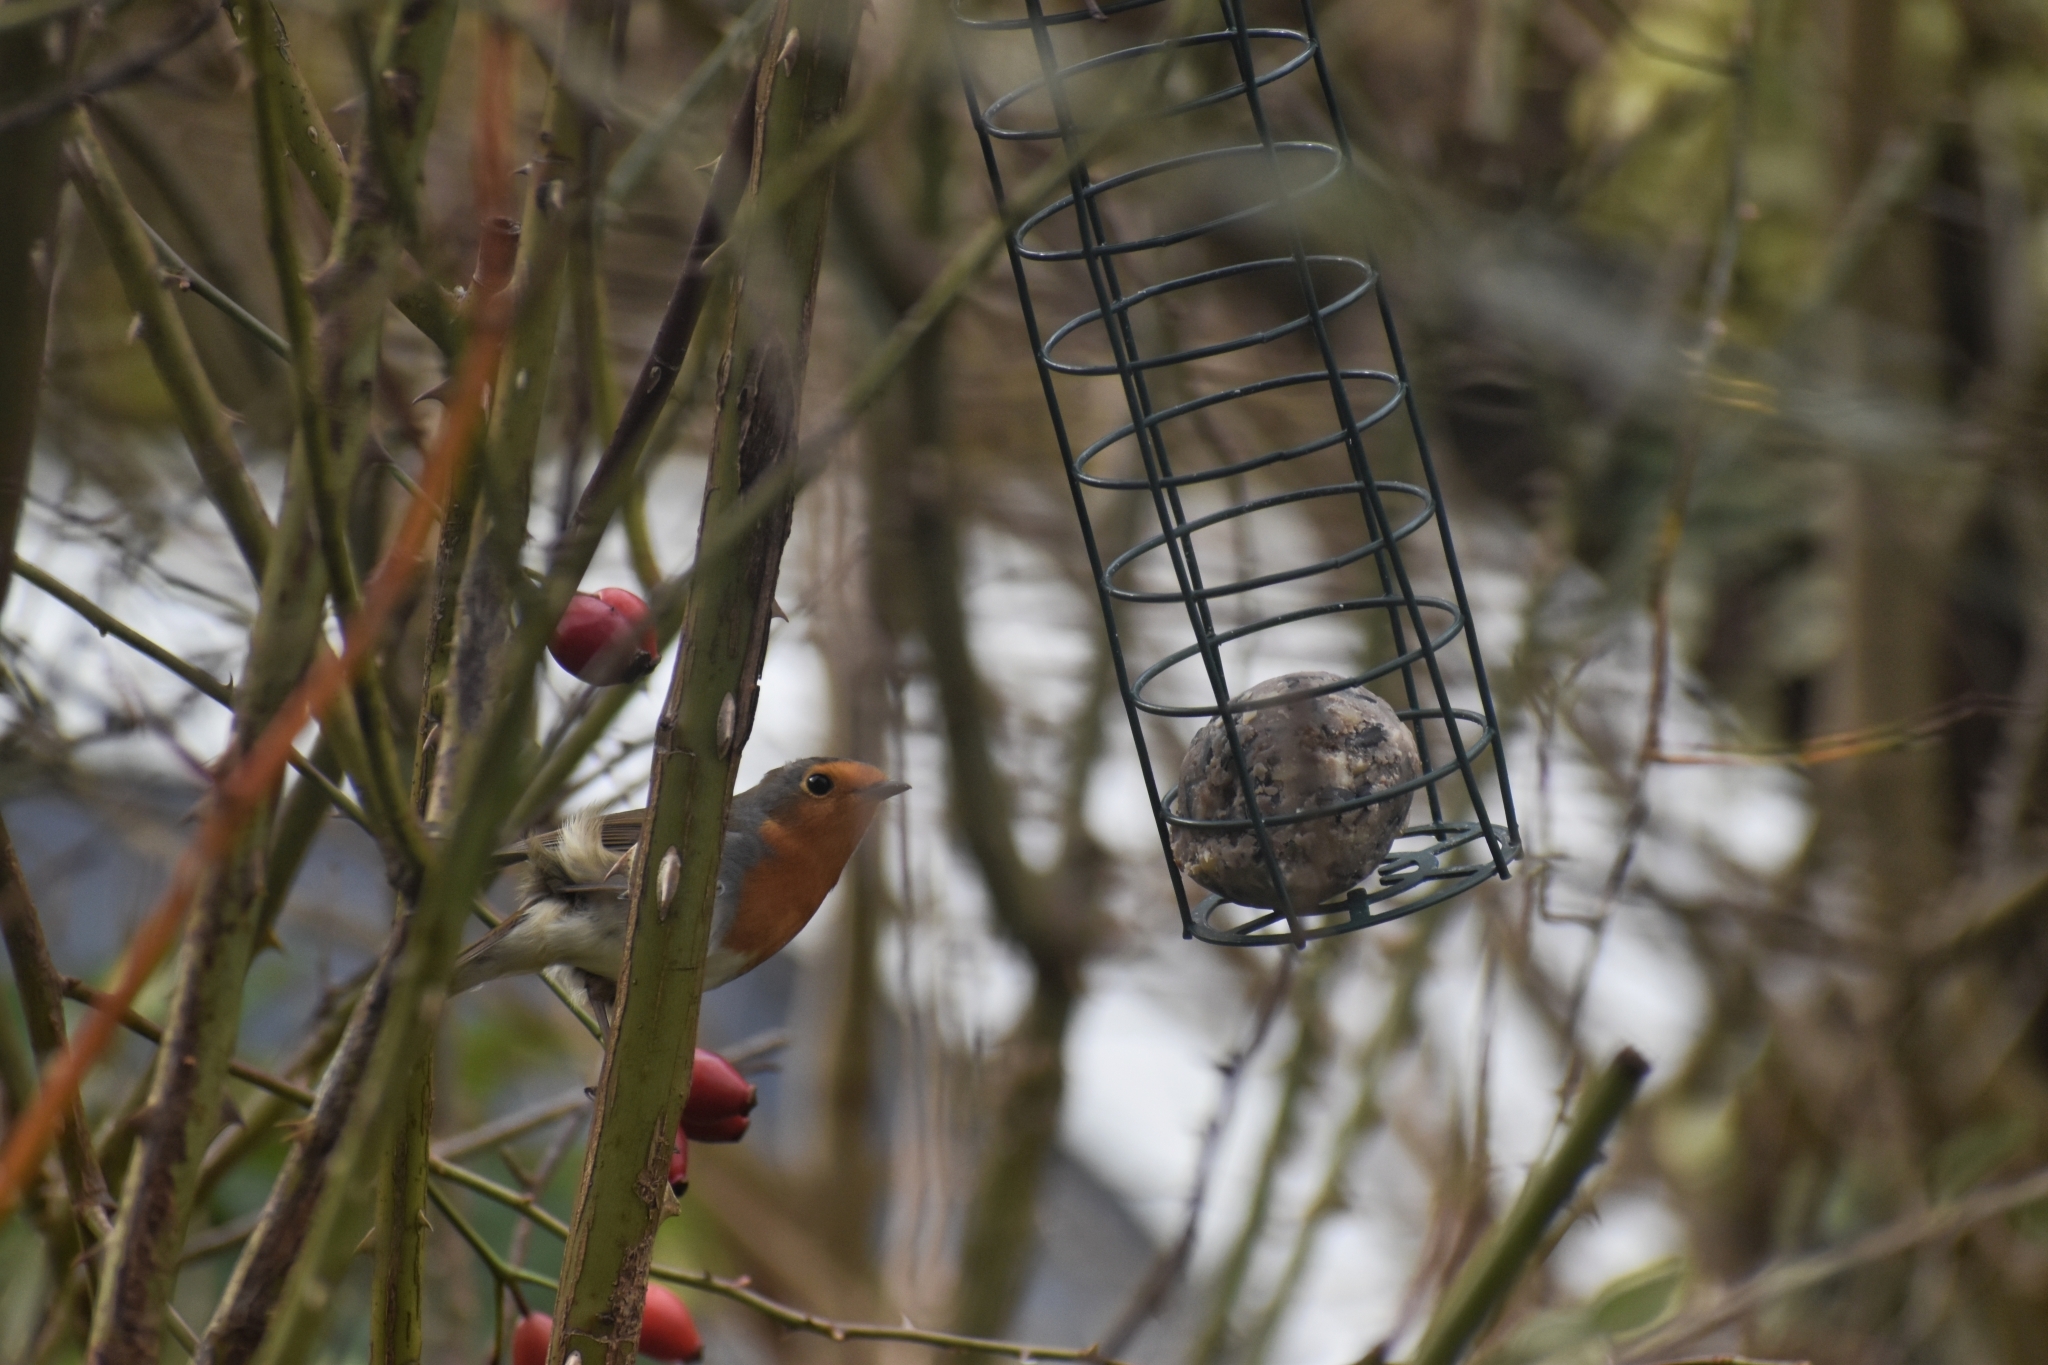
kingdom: Animalia
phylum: Chordata
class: Aves
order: Passeriformes
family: Muscicapidae
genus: Erithacus
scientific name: Erithacus rubecula
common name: European robin
